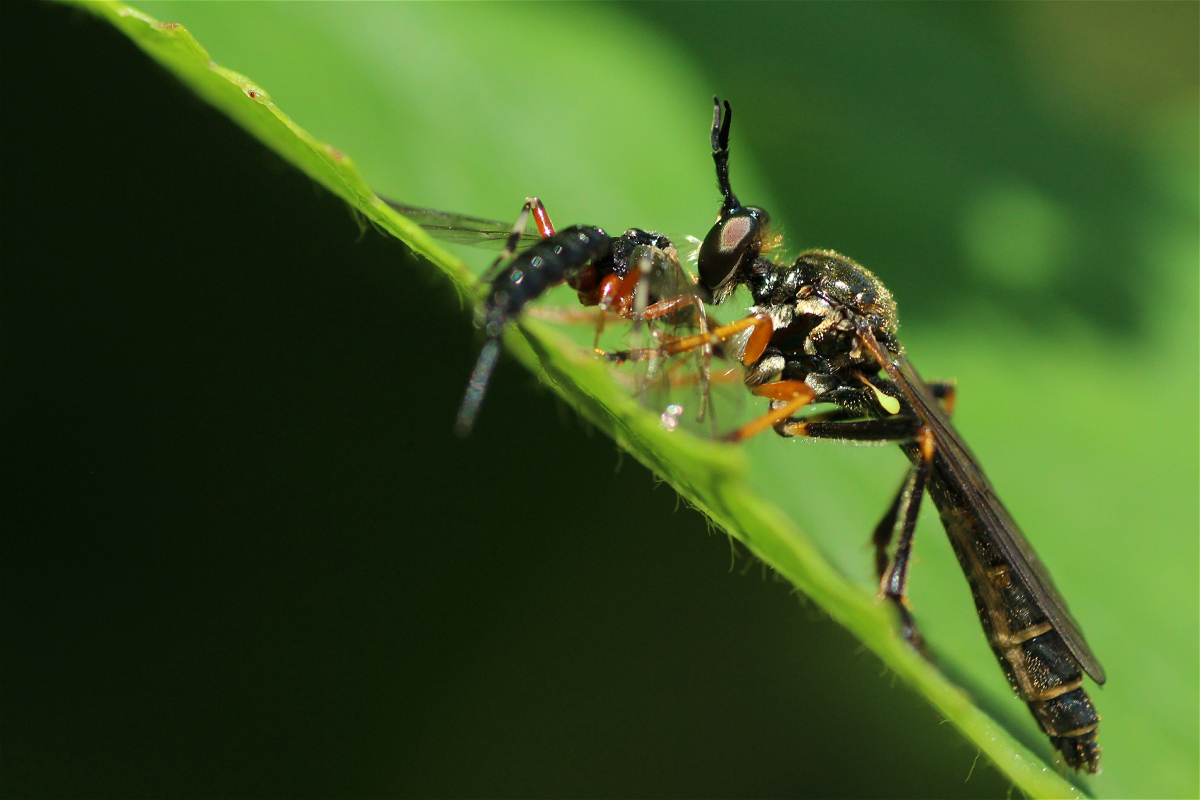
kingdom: Animalia
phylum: Arthropoda
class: Insecta
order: Diptera
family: Asilidae
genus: Dioctria
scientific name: Dioctria rufipes
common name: Common red-legged robberfly
